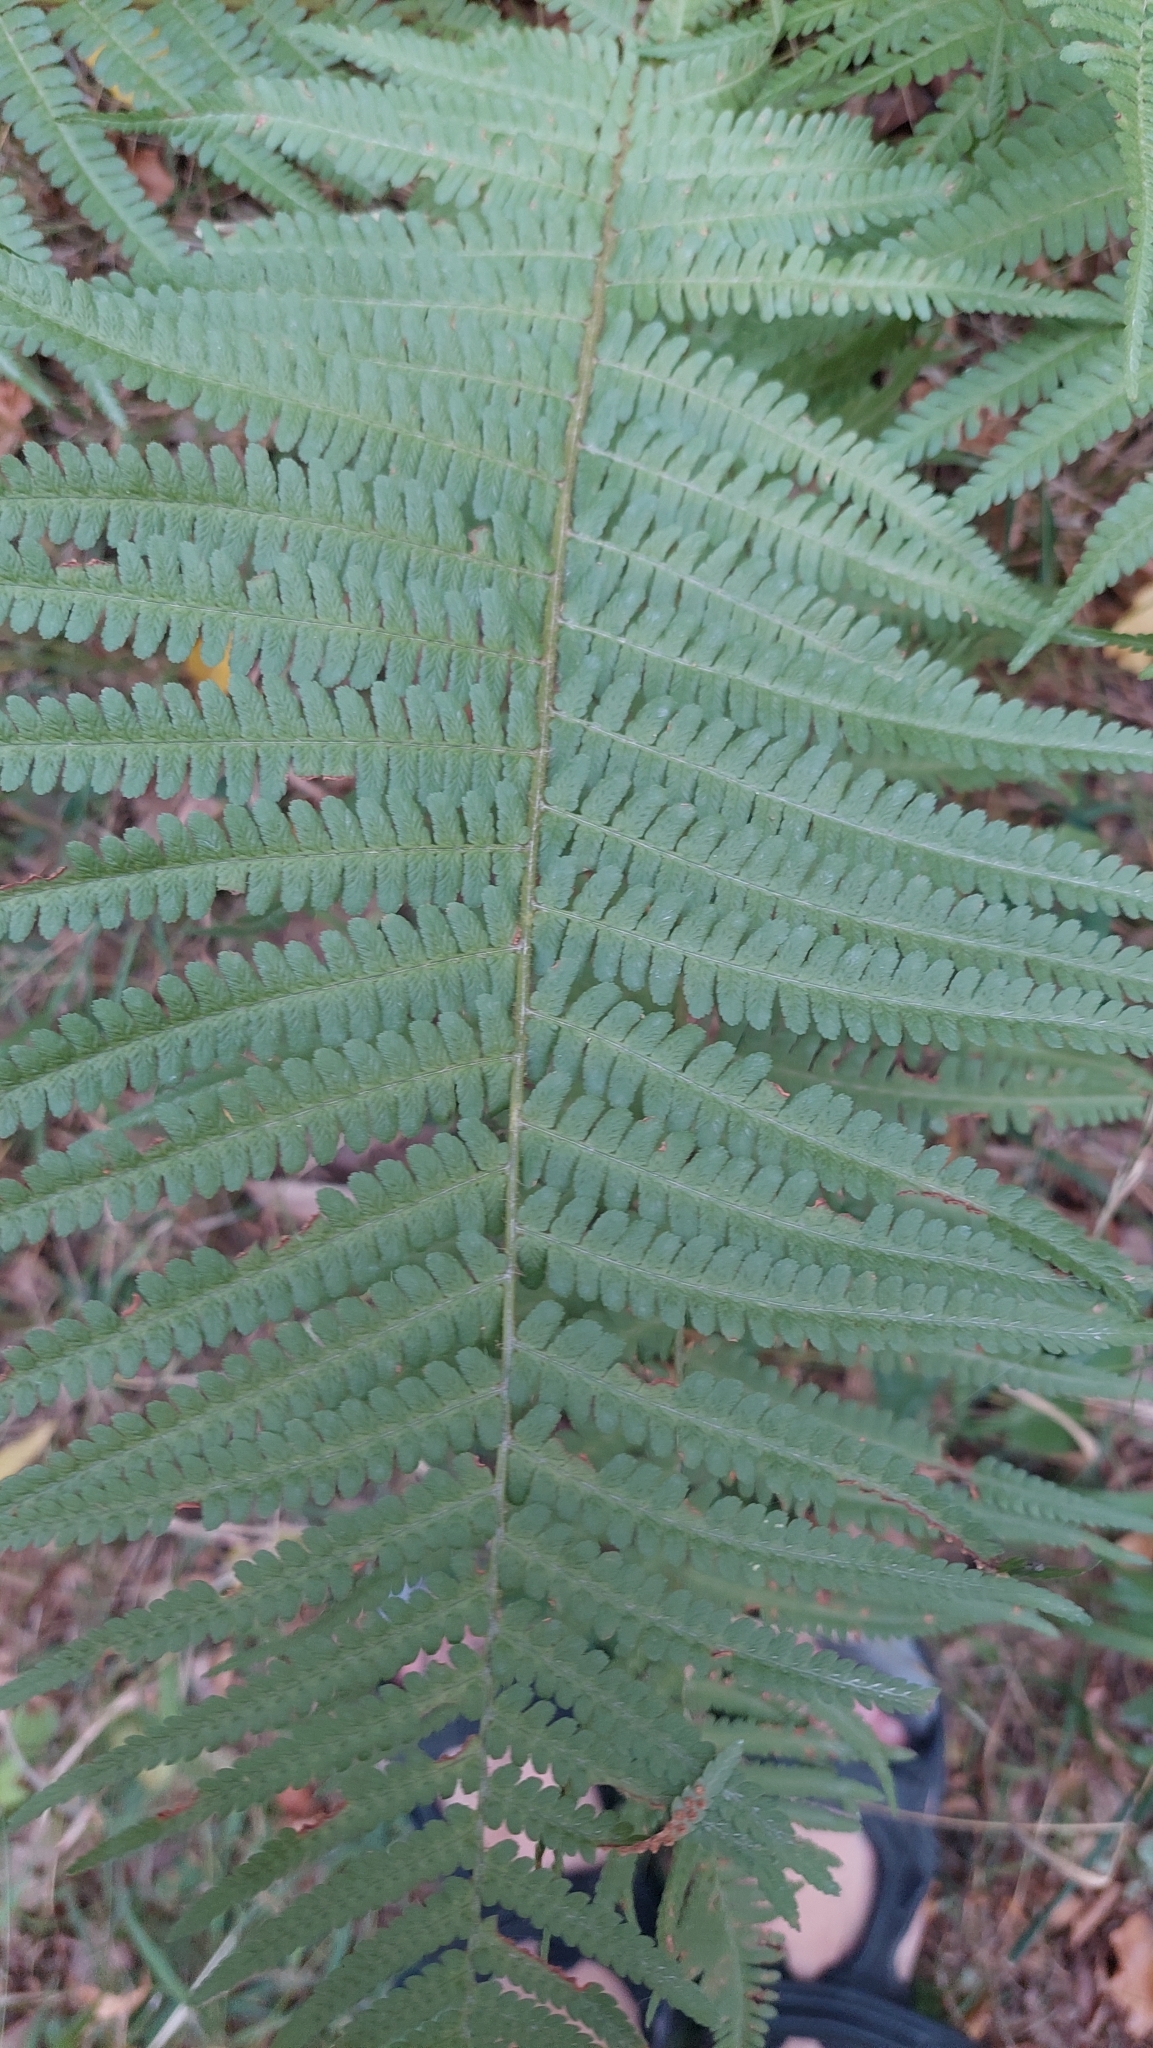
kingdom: Plantae
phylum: Tracheophyta
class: Polypodiopsida
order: Polypodiales
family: Dryopteridaceae
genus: Dryopteris
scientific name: Dryopteris filix-mas
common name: Male fern
